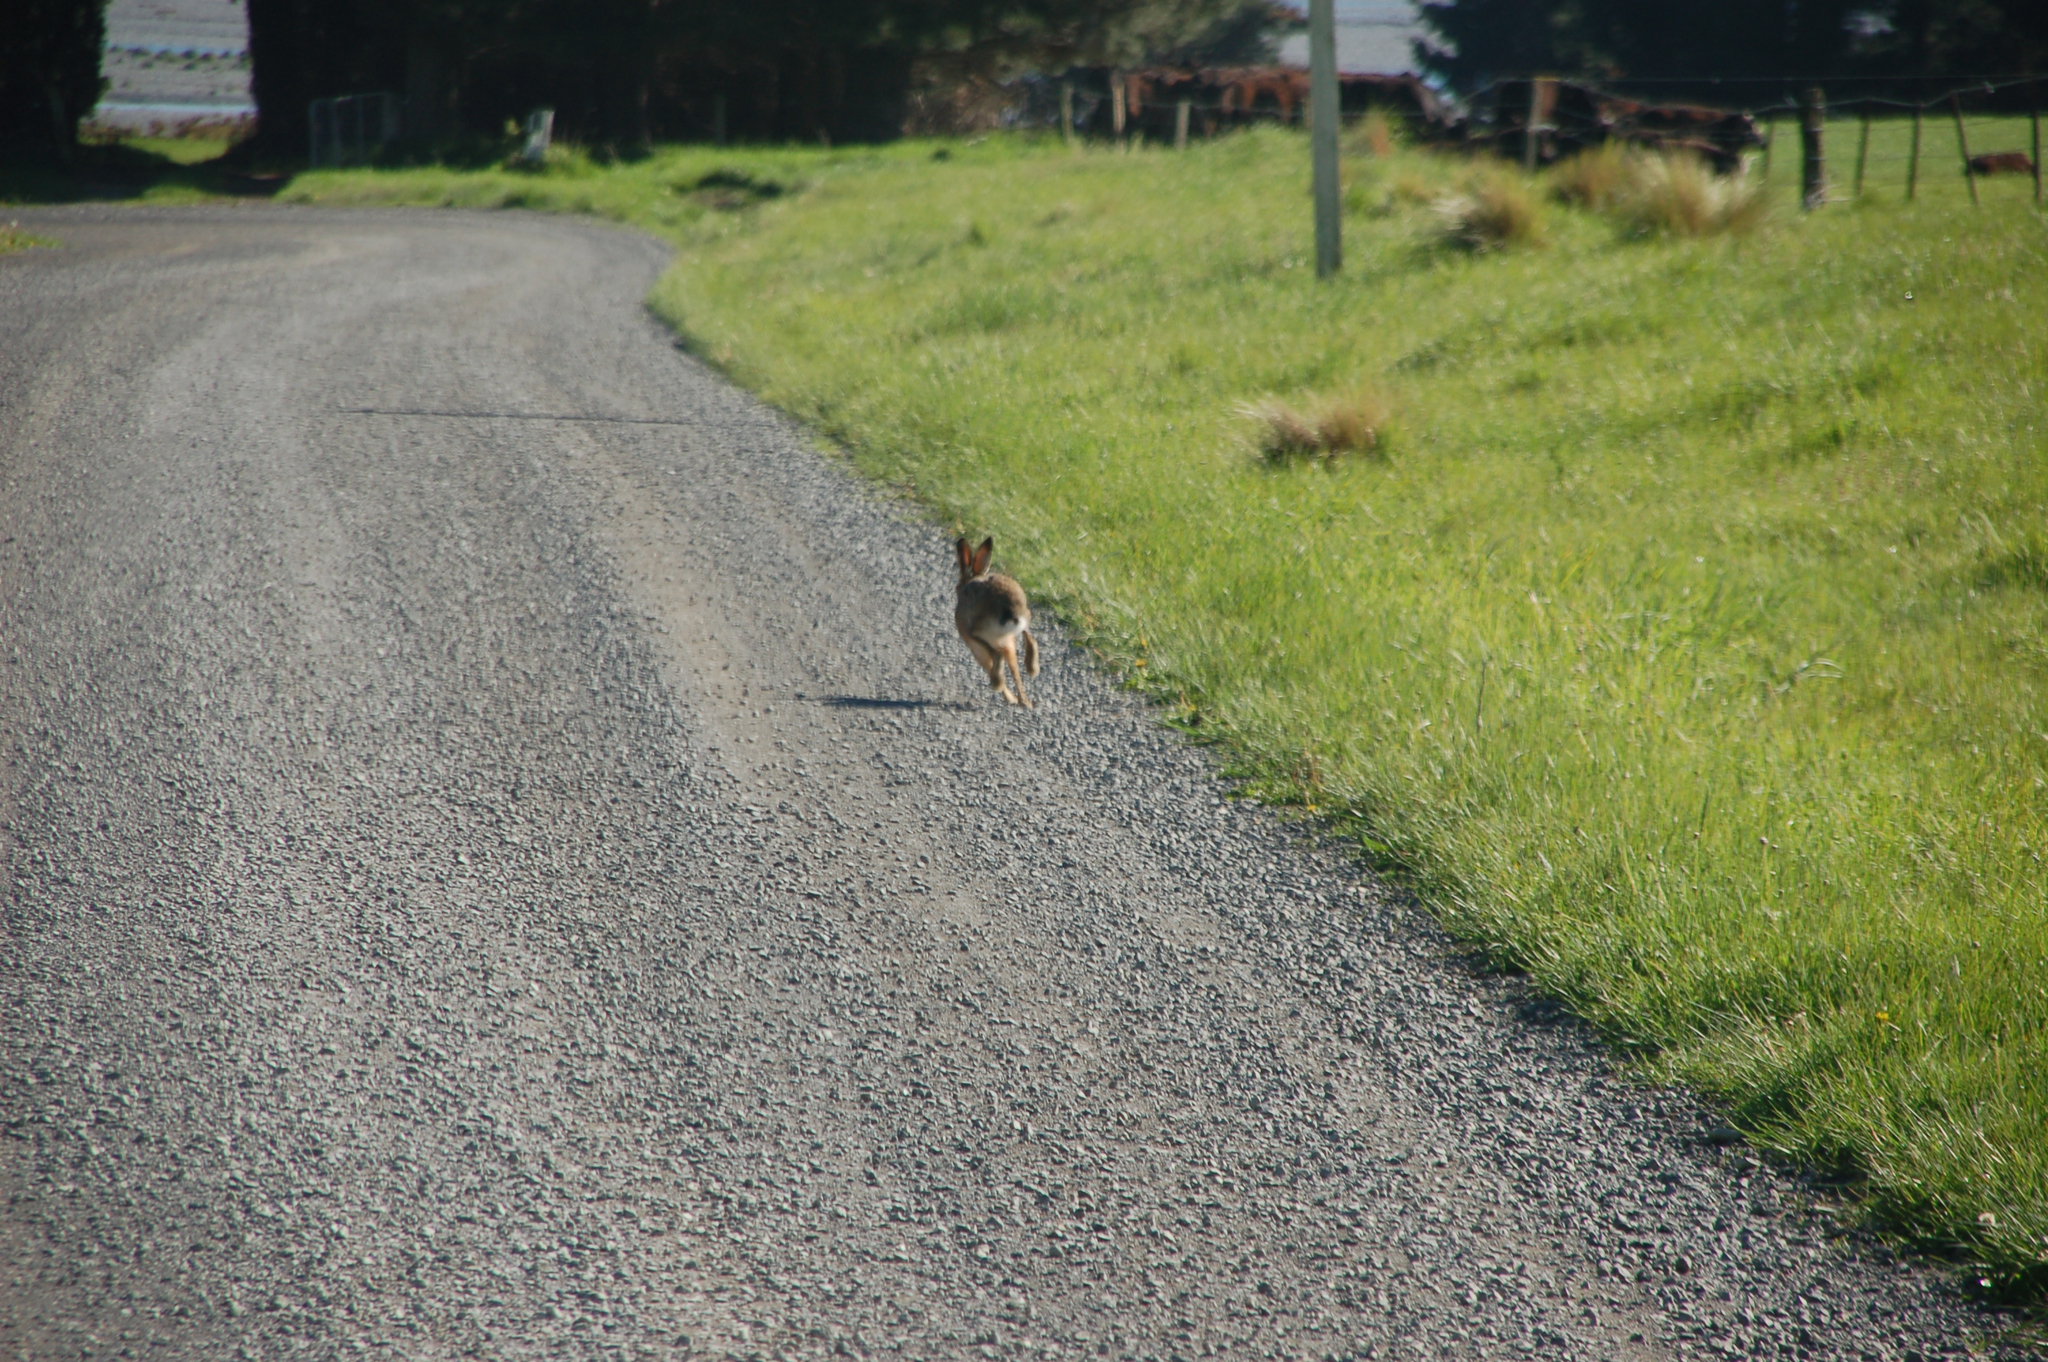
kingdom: Animalia
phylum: Chordata
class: Mammalia
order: Lagomorpha
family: Leporidae
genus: Lepus
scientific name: Lepus europaeus
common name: European hare
